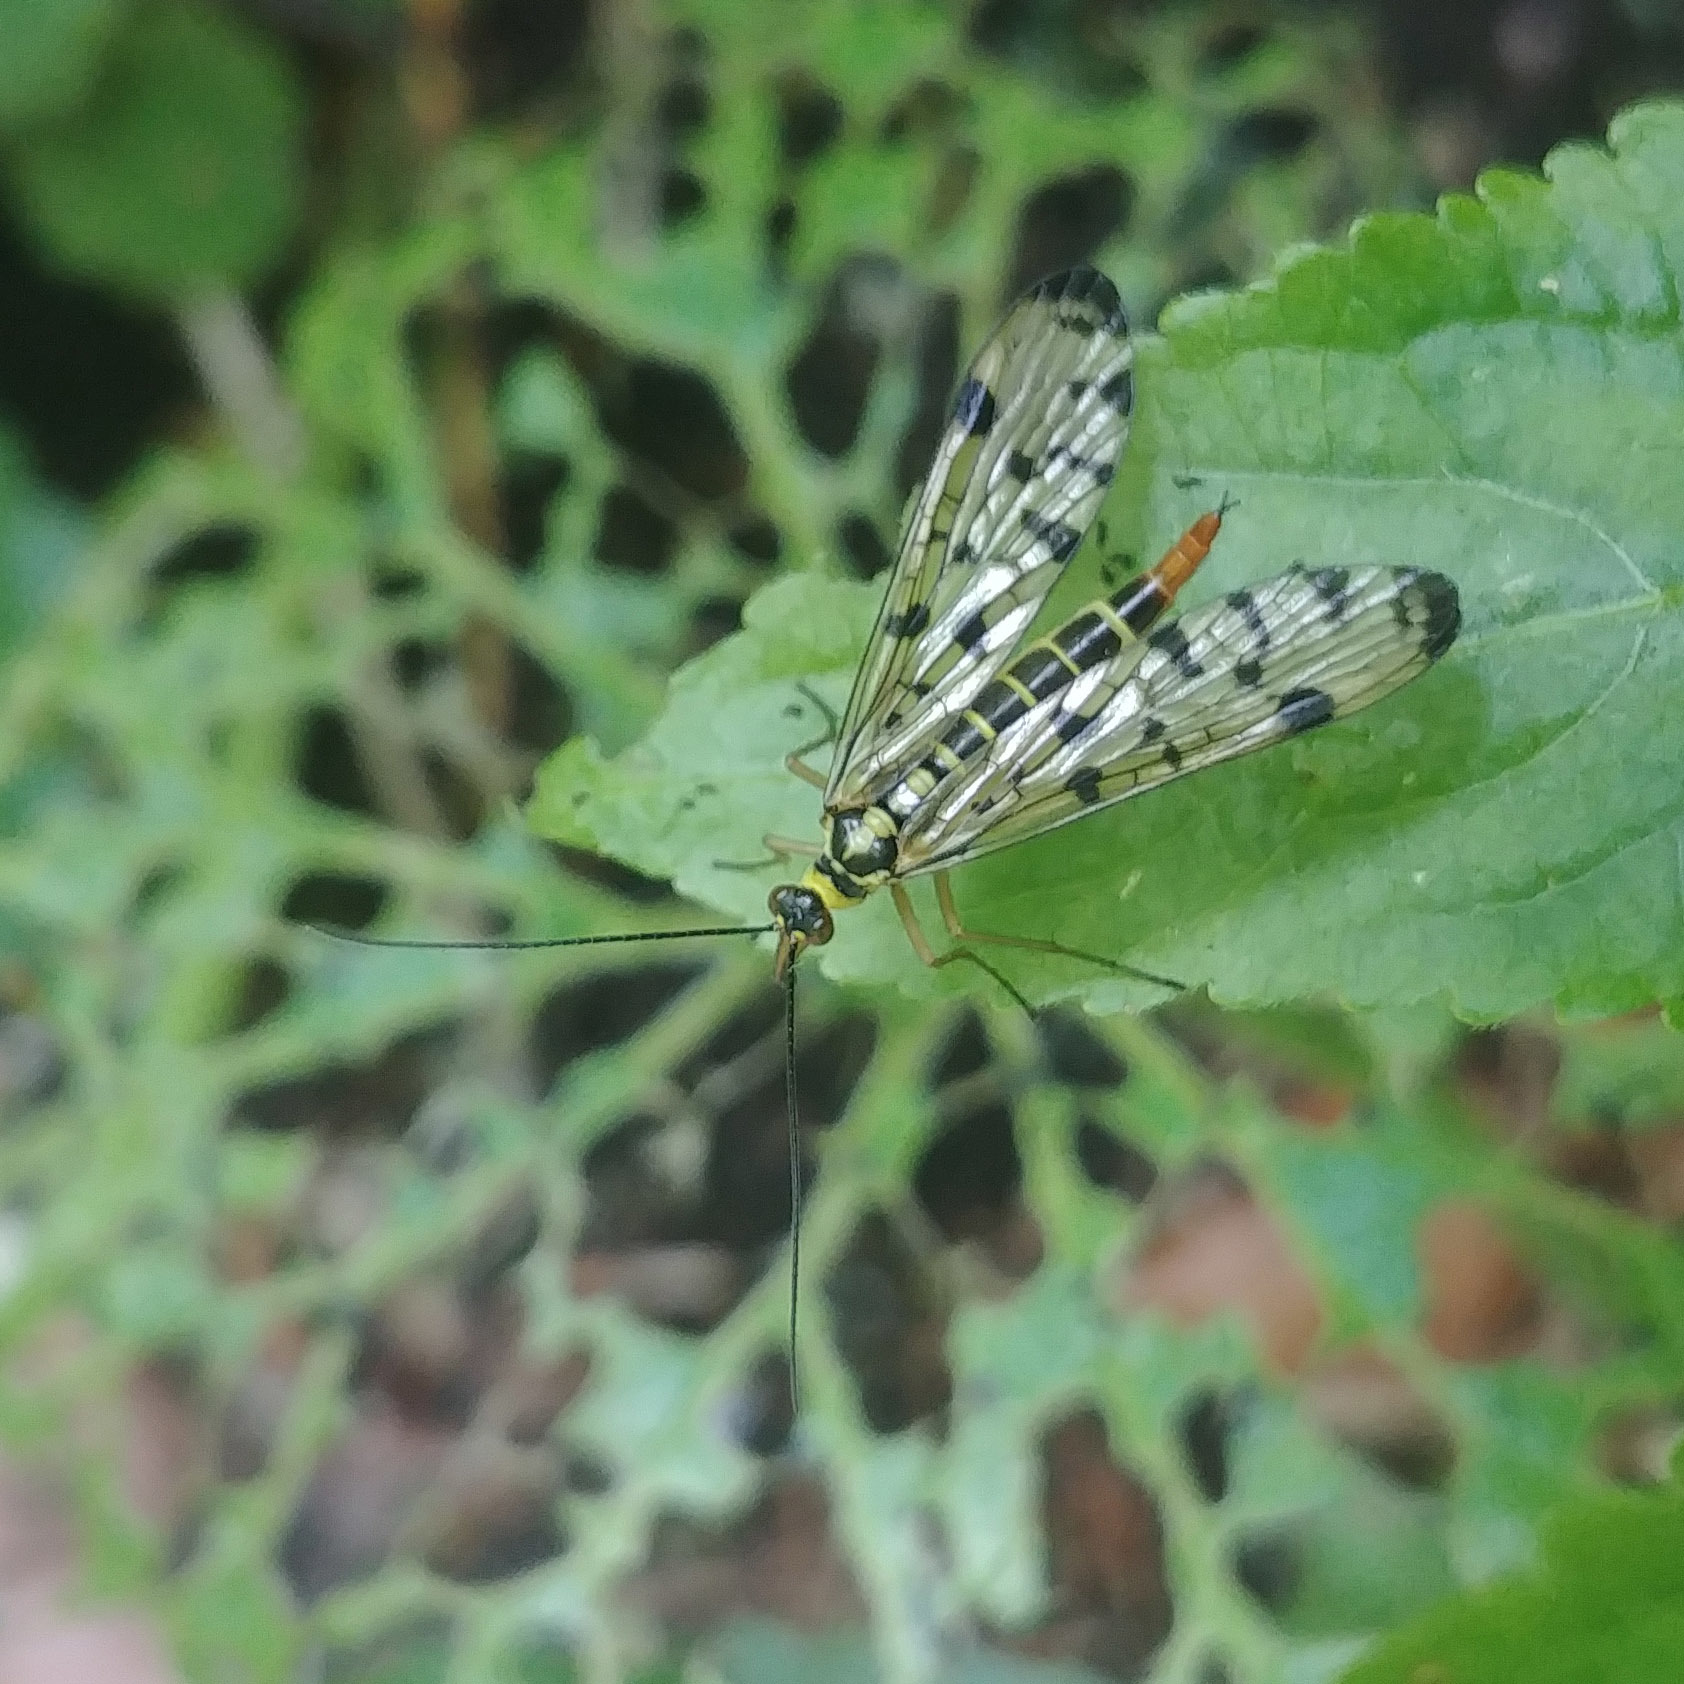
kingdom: Animalia
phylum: Arthropoda
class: Insecta
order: Mecoptera
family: Panorpidae
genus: Panorpa
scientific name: Panorpa germanica
